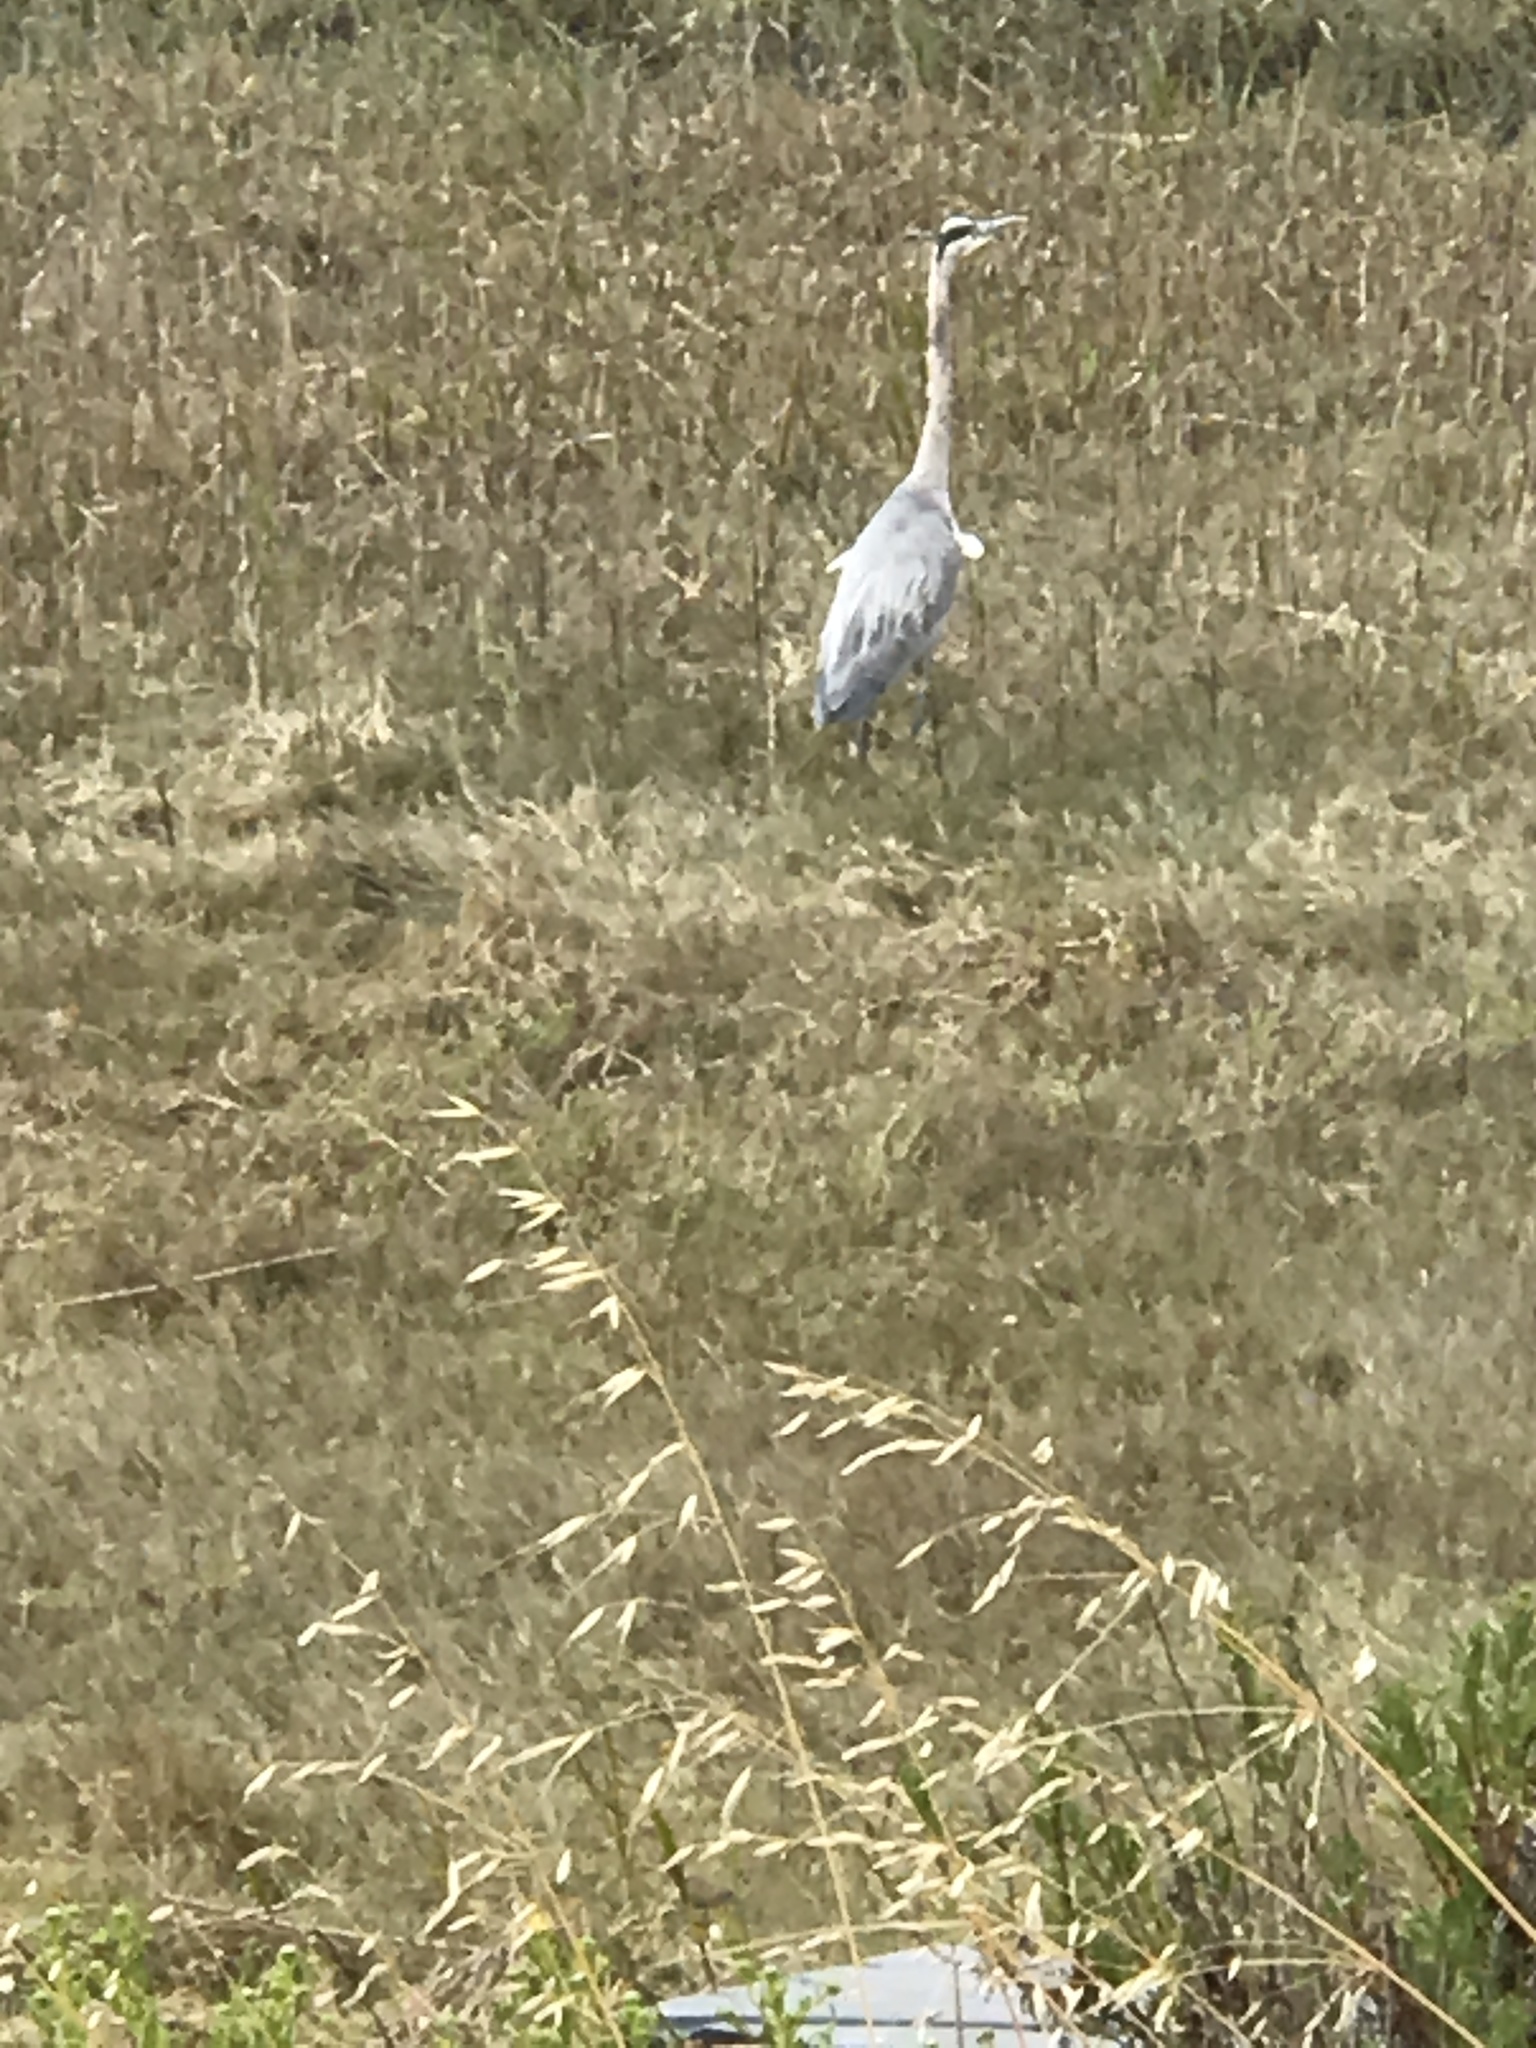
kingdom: Animalia
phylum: Chordata
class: Aves
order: Pelecaniformes
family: Ardeidae
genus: Ardea
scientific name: Ardea herodias
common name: Great blue heron
